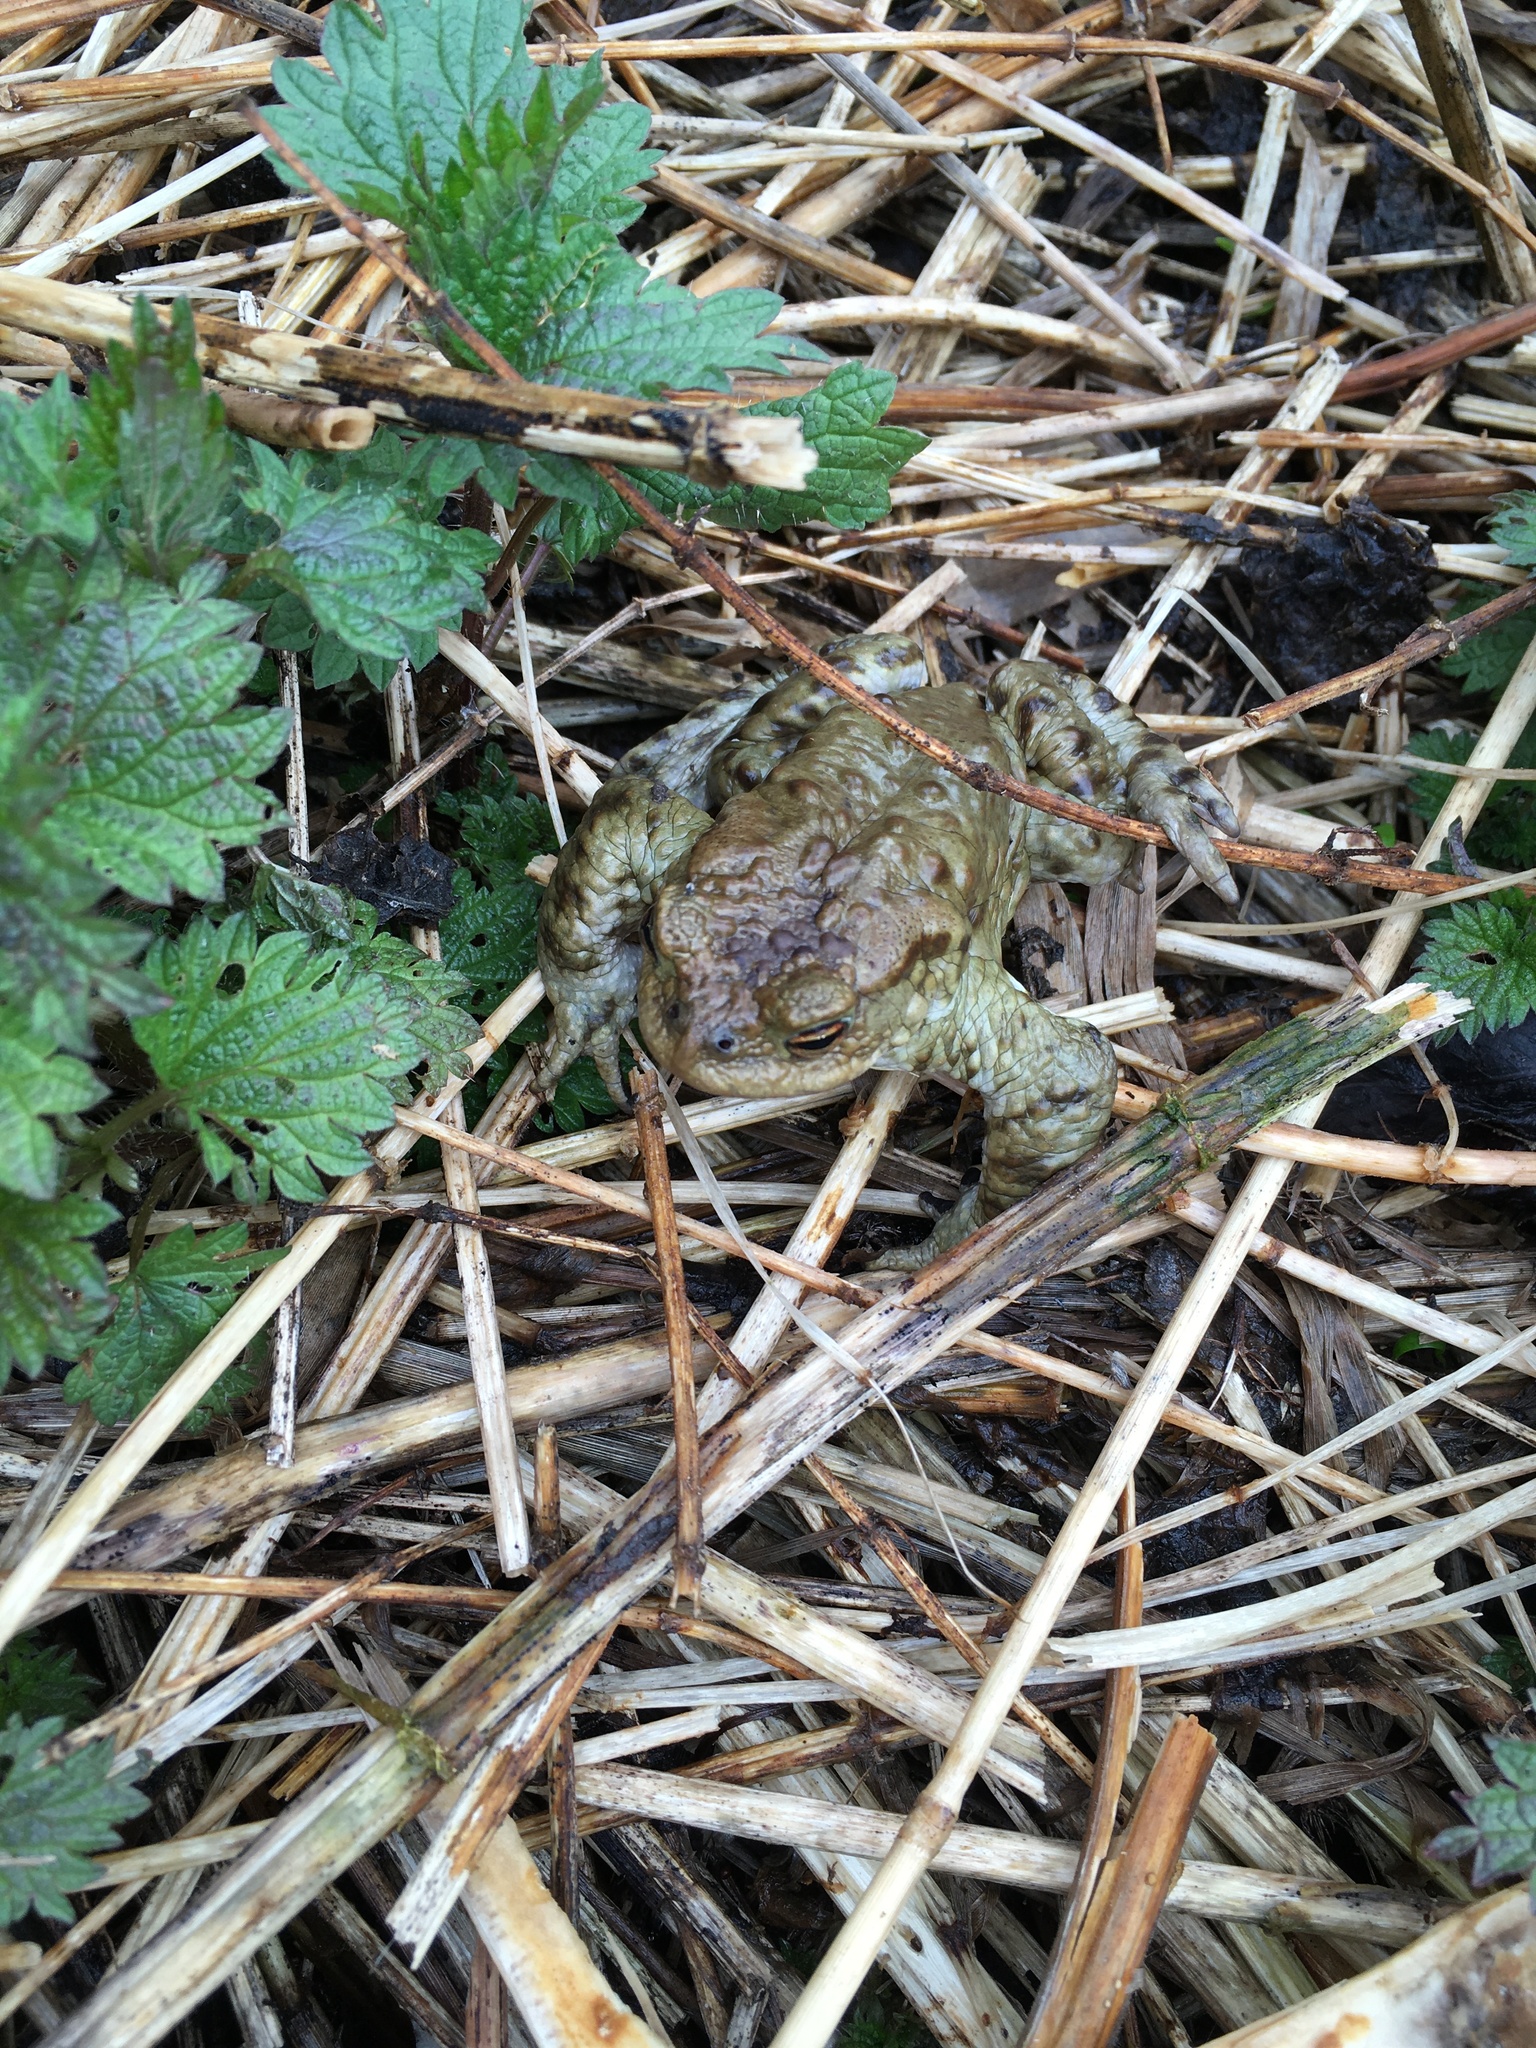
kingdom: Animalia
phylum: Chordata
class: Amphibia
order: Anura
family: Bufonidae
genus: Bufo
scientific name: Bufo bufo
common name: Common toad
